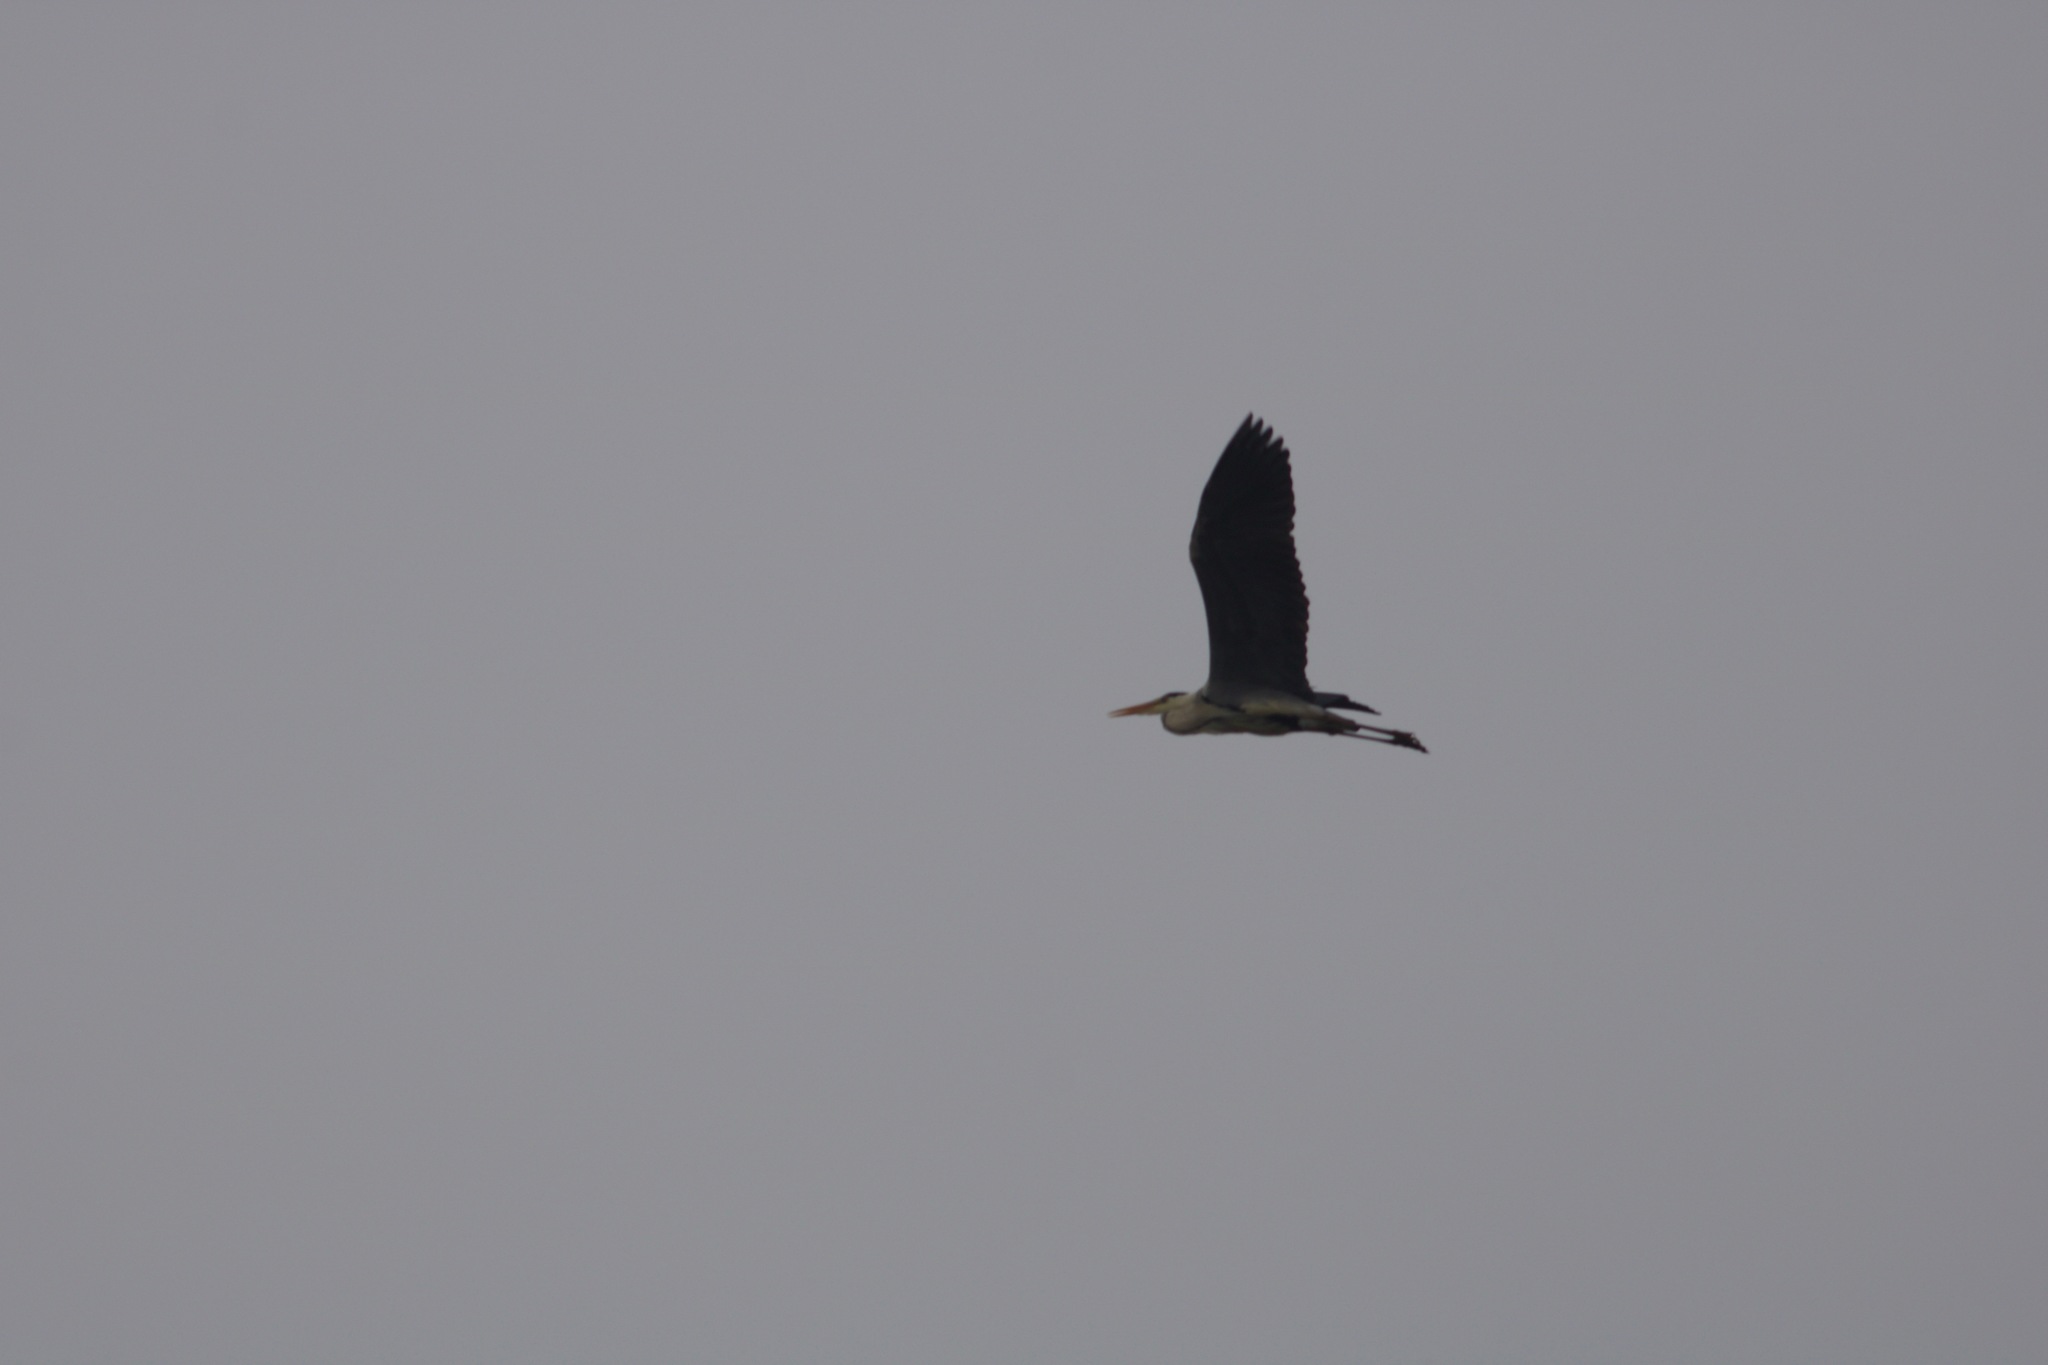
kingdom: Animalia
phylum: Chordata
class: Aves
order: Pelecaniformes
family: Ardeidae
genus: Ardea
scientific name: Ardea cinerea
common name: Grey heron
